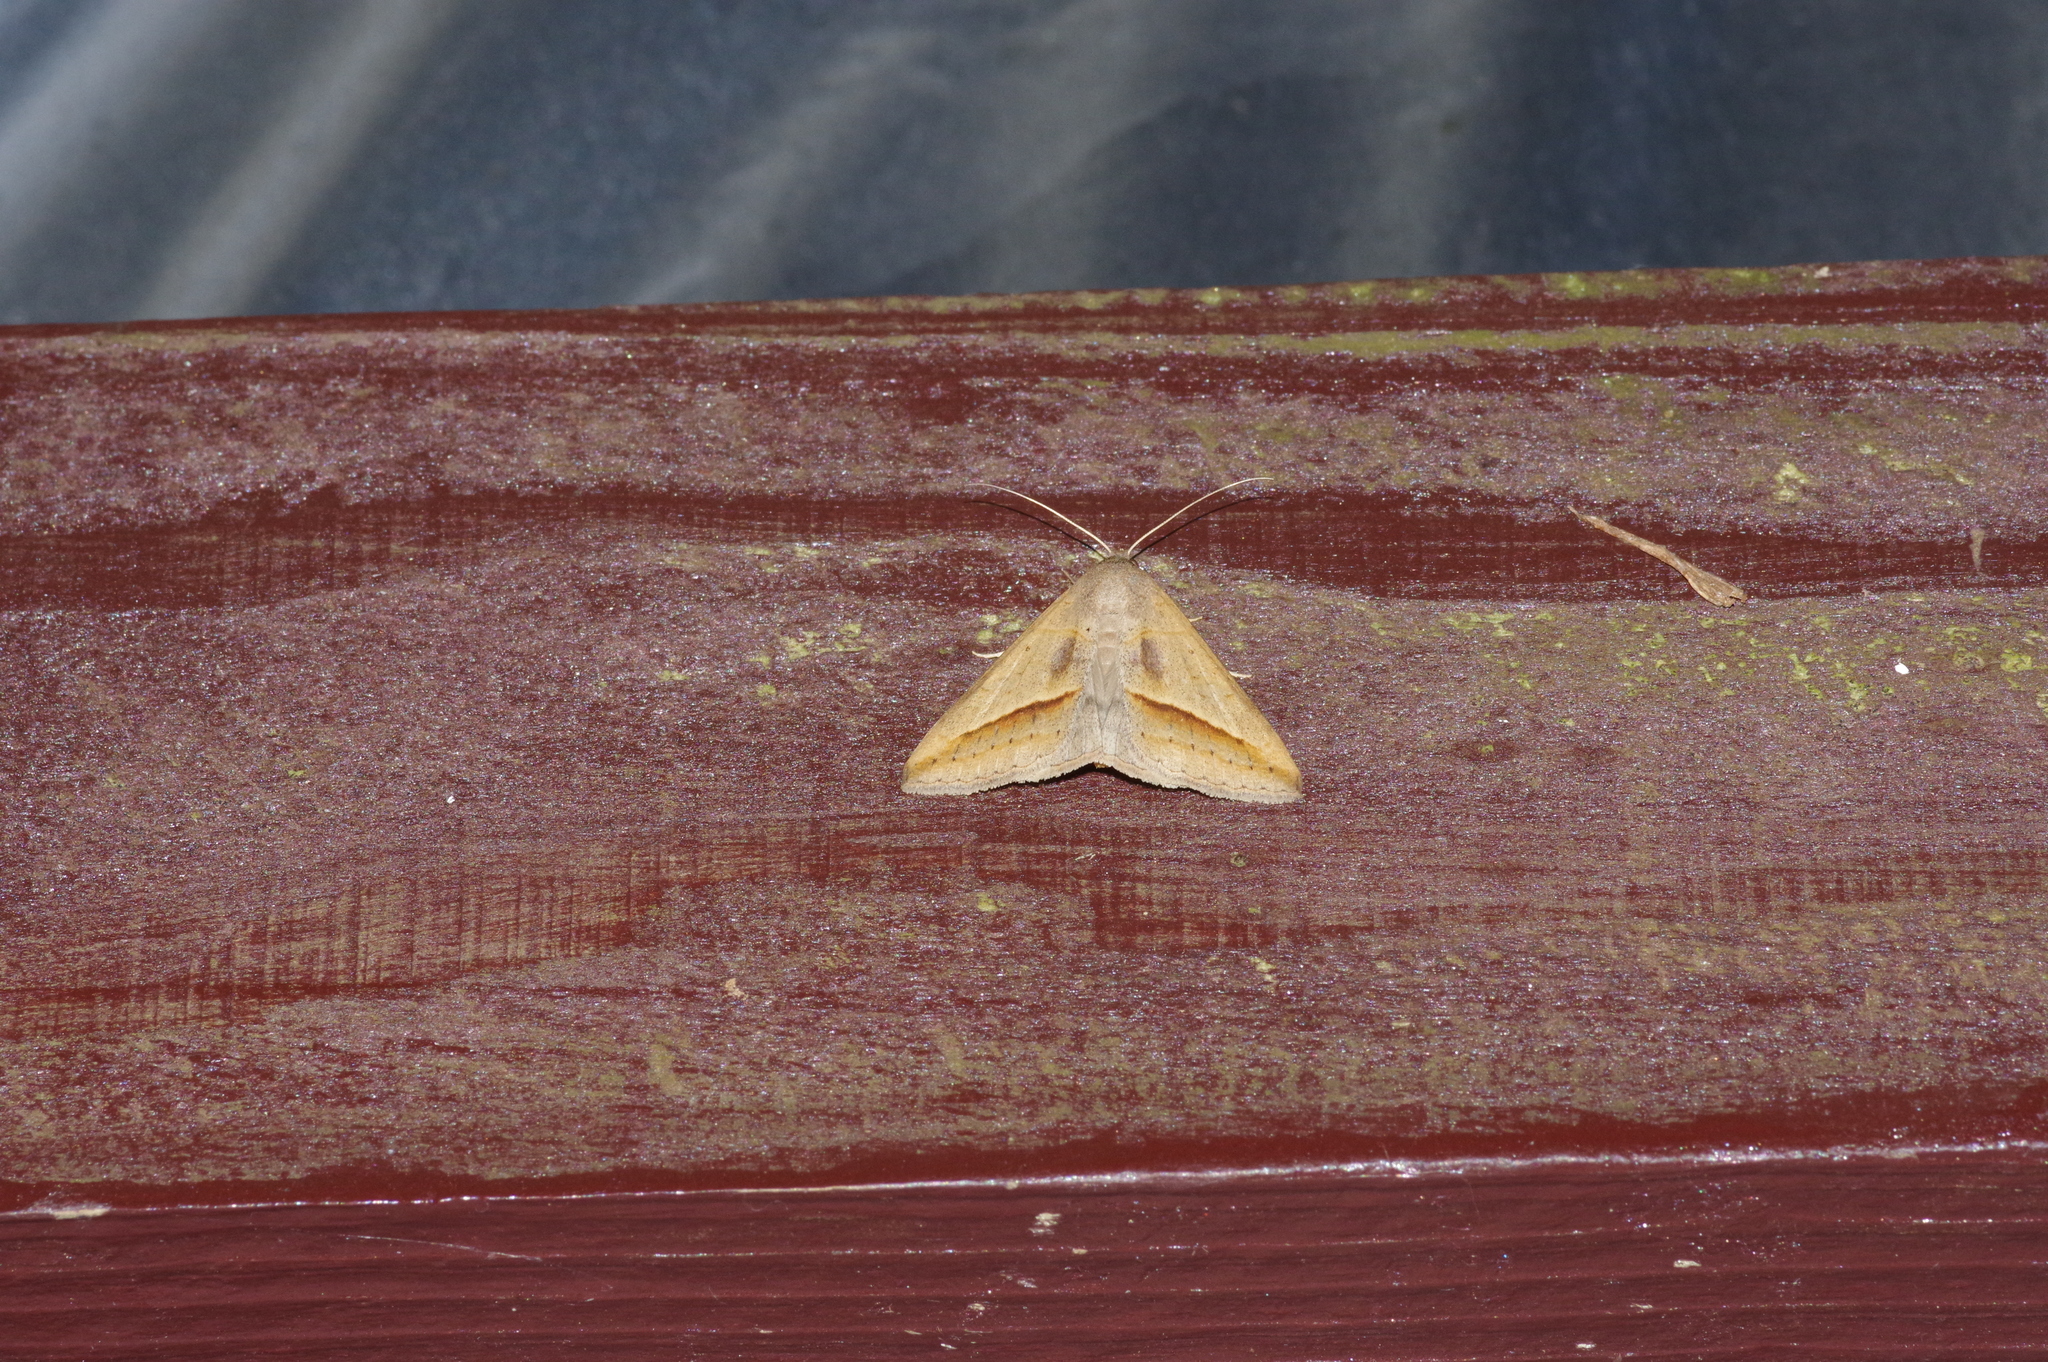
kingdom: Animalia
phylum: Arthropoda
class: Insecta
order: Lepidoptera
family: Erebidae
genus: Mocis
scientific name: Mocis frugalis
